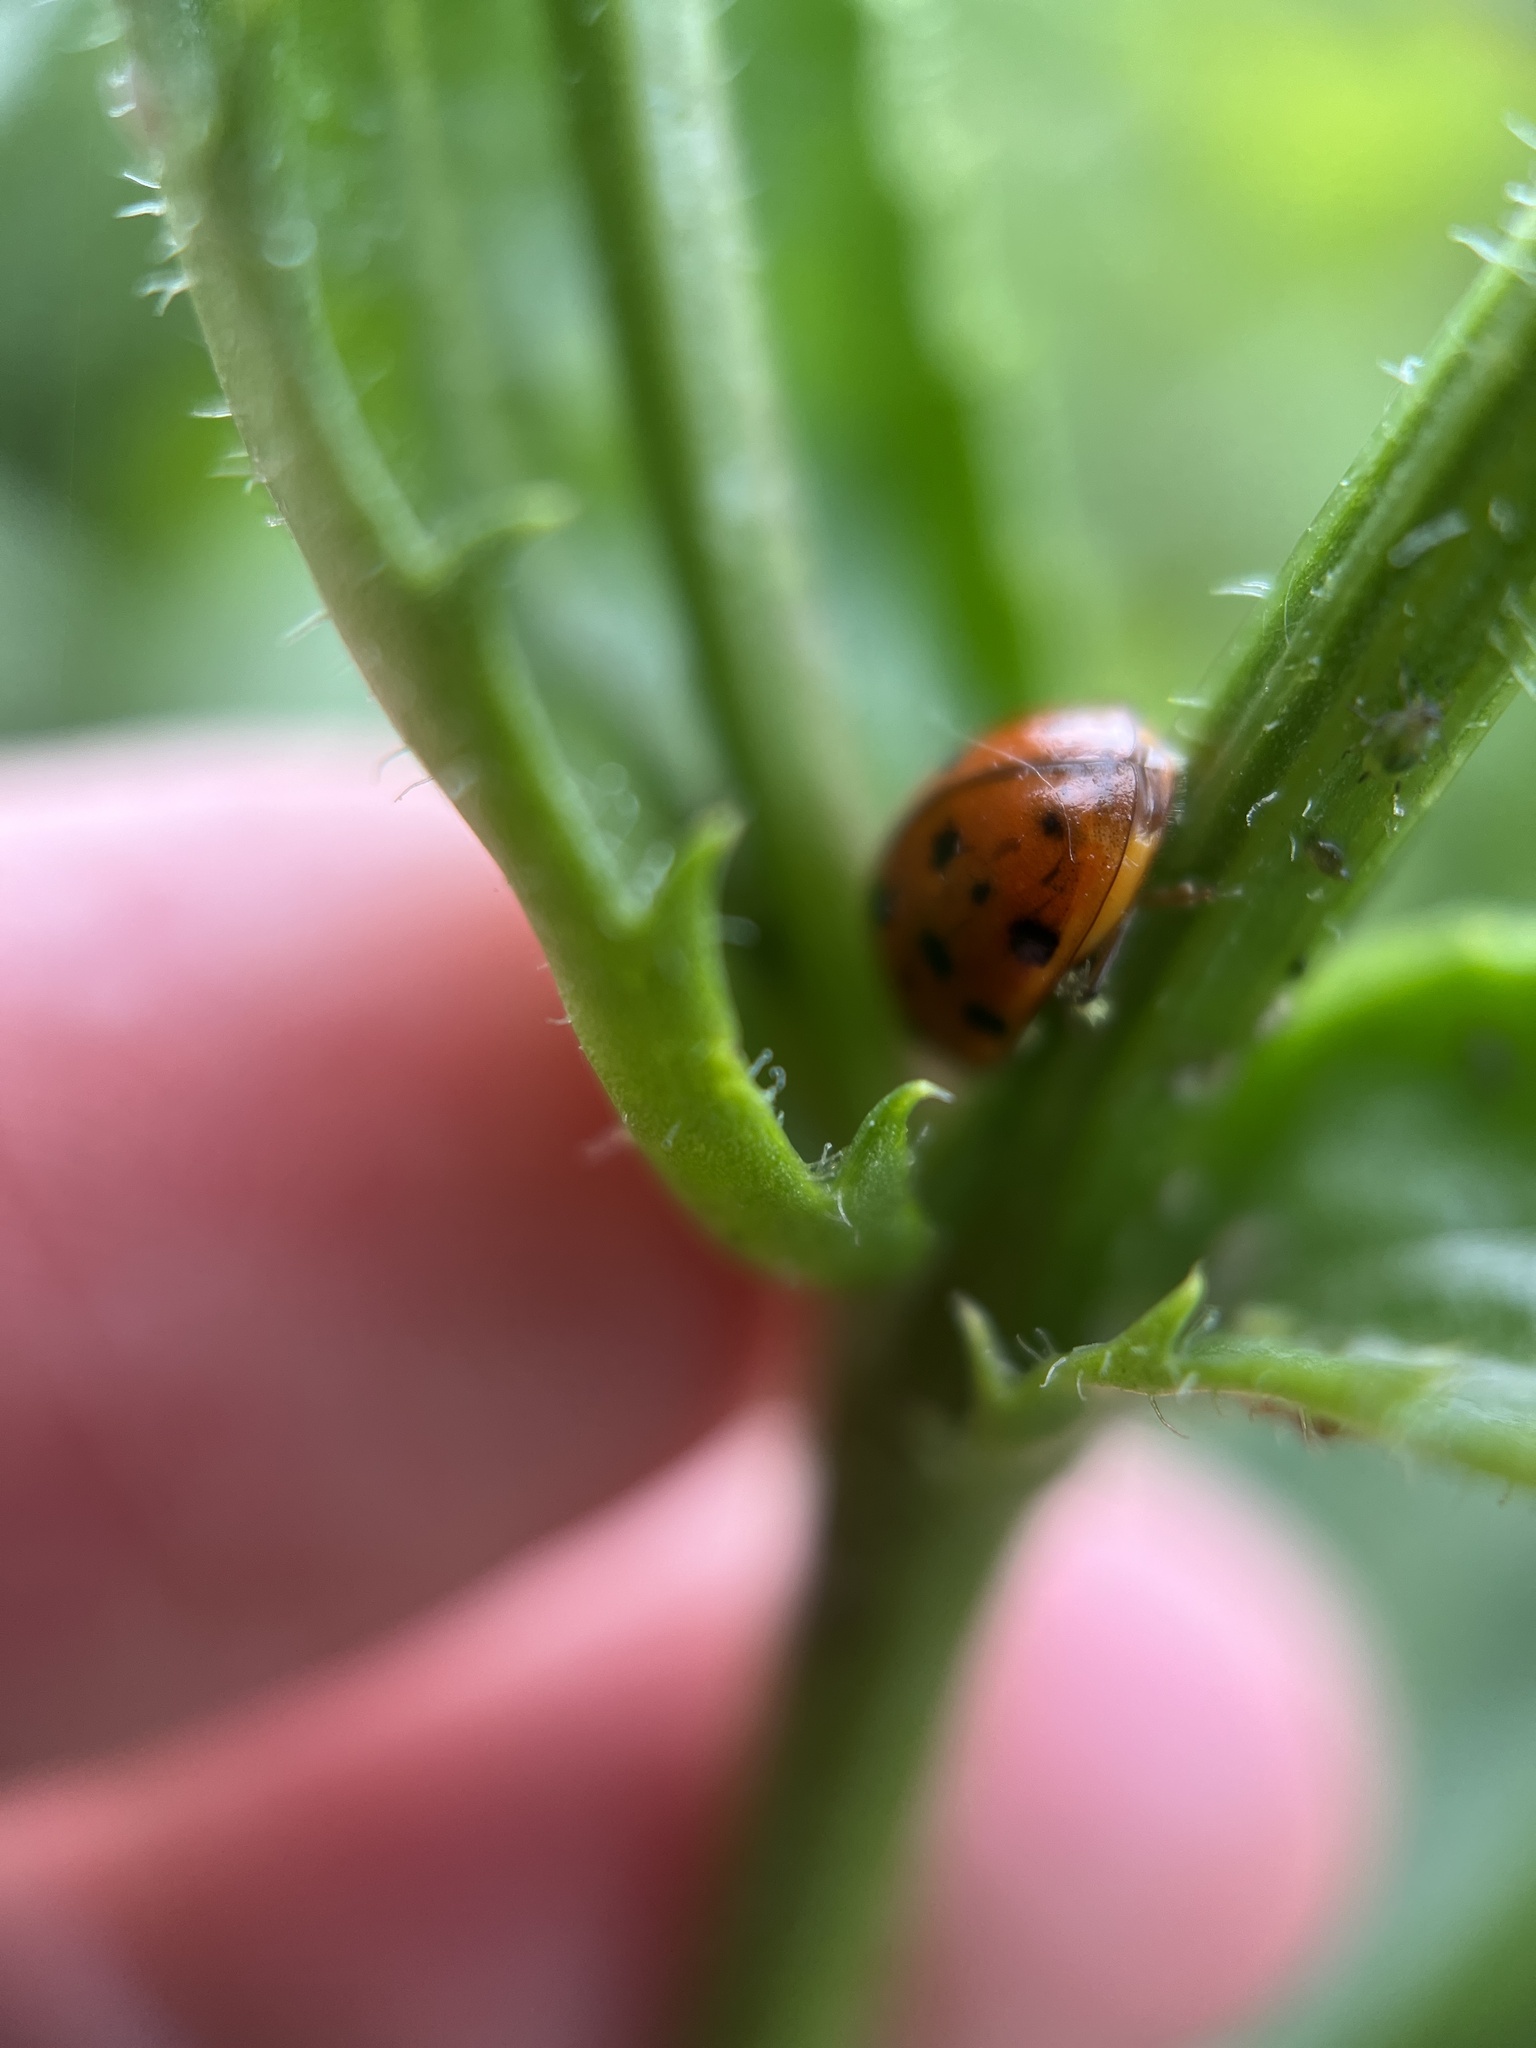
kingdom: Animalia
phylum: Arthropoda
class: Insecta
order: Coleoptera
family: Coccinellidae
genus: Harmonia
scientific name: Harmonia axyridis
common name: Harlequin ladybird
